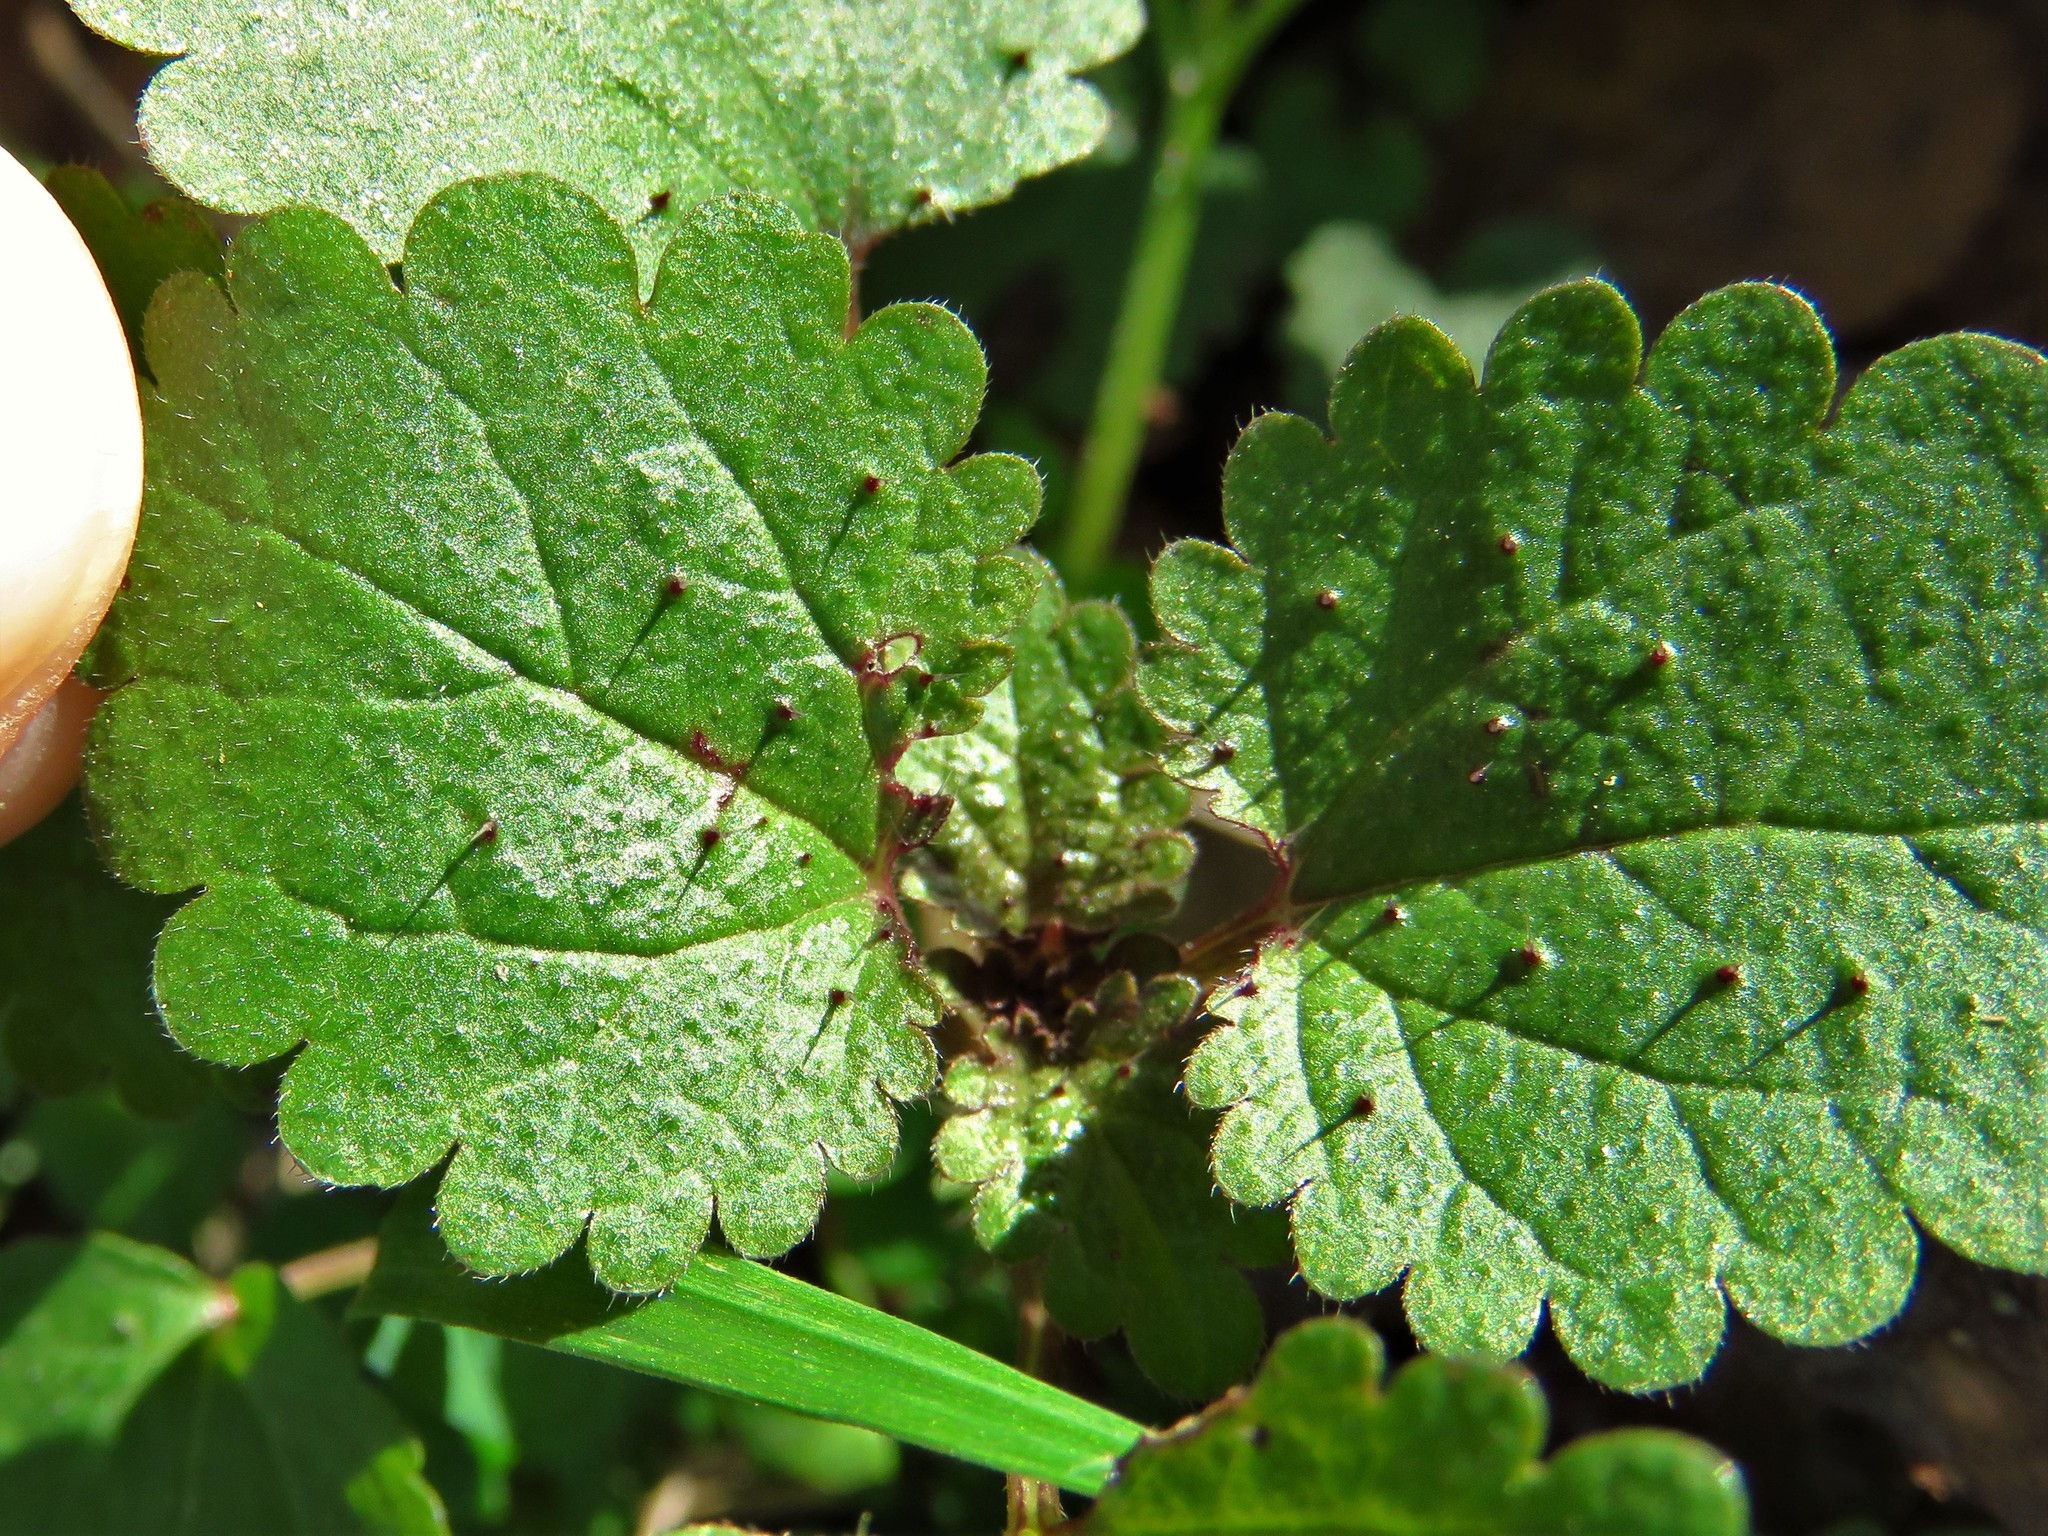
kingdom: Plantae
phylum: Tracheophyta
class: Magnoliopsida
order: Rosales
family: Urticaceae
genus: Urtica
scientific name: Urtica chamaedryoides
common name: Heart-leaf nettle
